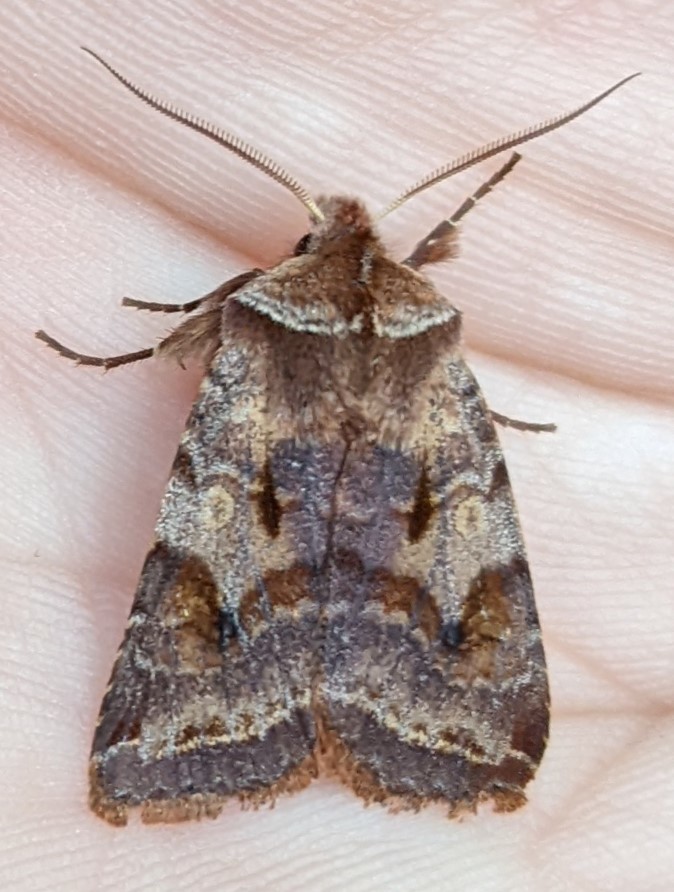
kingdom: Animalia
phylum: Arthropoda
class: Insecta
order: Lepidoptera
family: Noctuidae
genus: Cerastis
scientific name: Cerastis salicarum
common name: Willow dart
